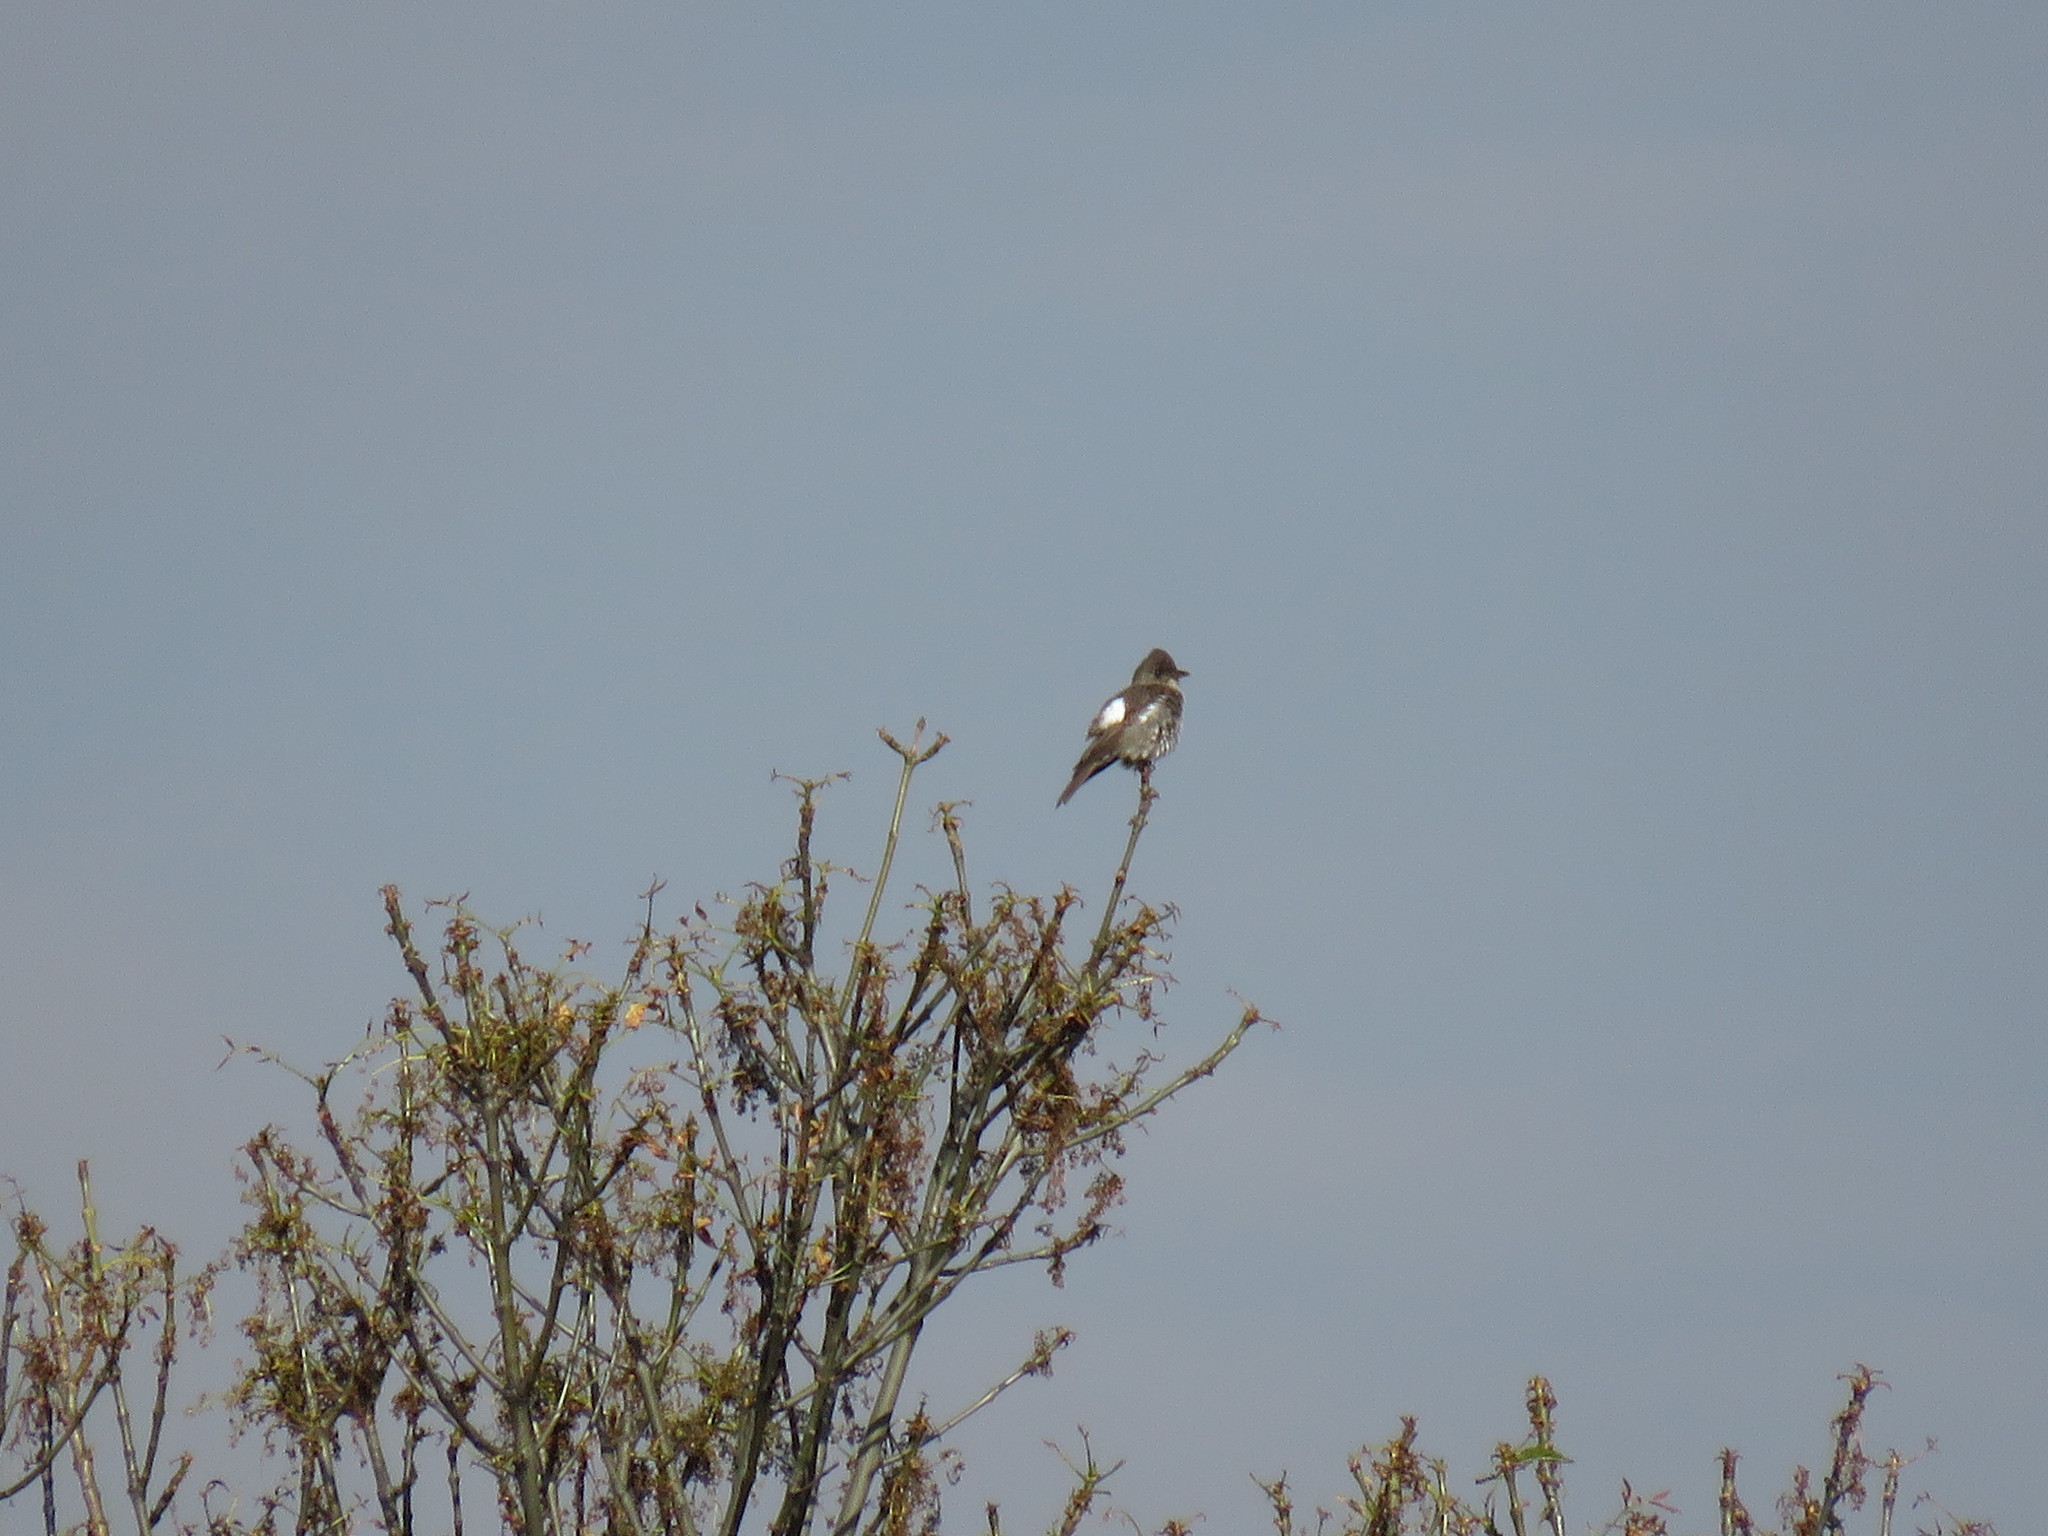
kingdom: Animalia
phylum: Chordata
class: Aves
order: Passeriformes
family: Tyrannidae
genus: Contopus
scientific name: Contopus cooperi
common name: Olive-sided flycatcher
